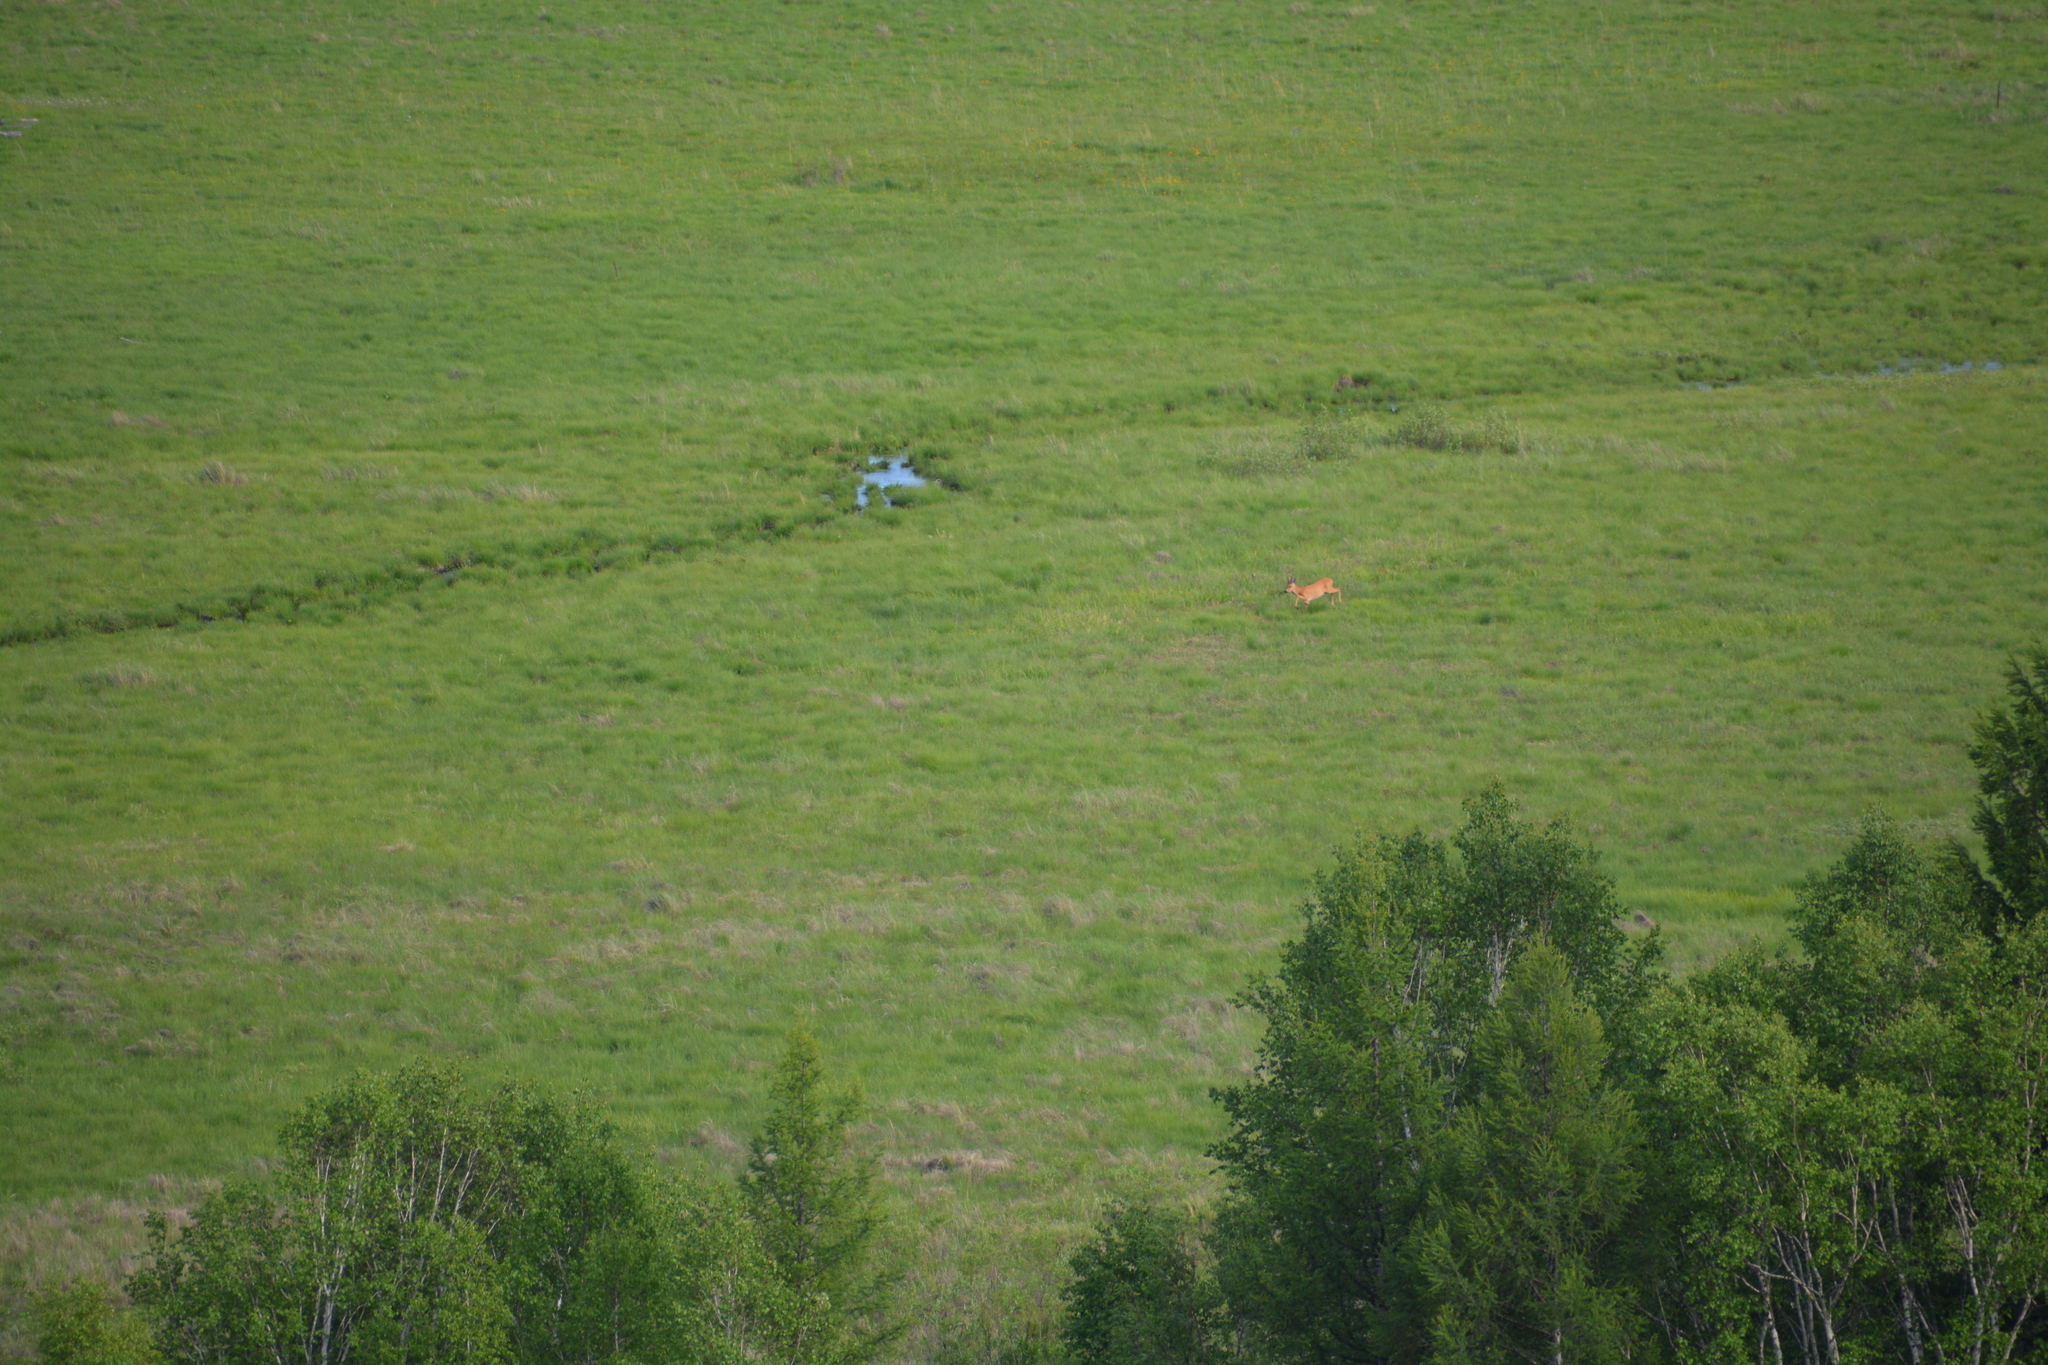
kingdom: Animalia
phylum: Chordata
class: Mammalia
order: Artiodactyla
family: Cervidae
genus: Capreolus
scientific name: Capreolus pygargus
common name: Siberian roe
